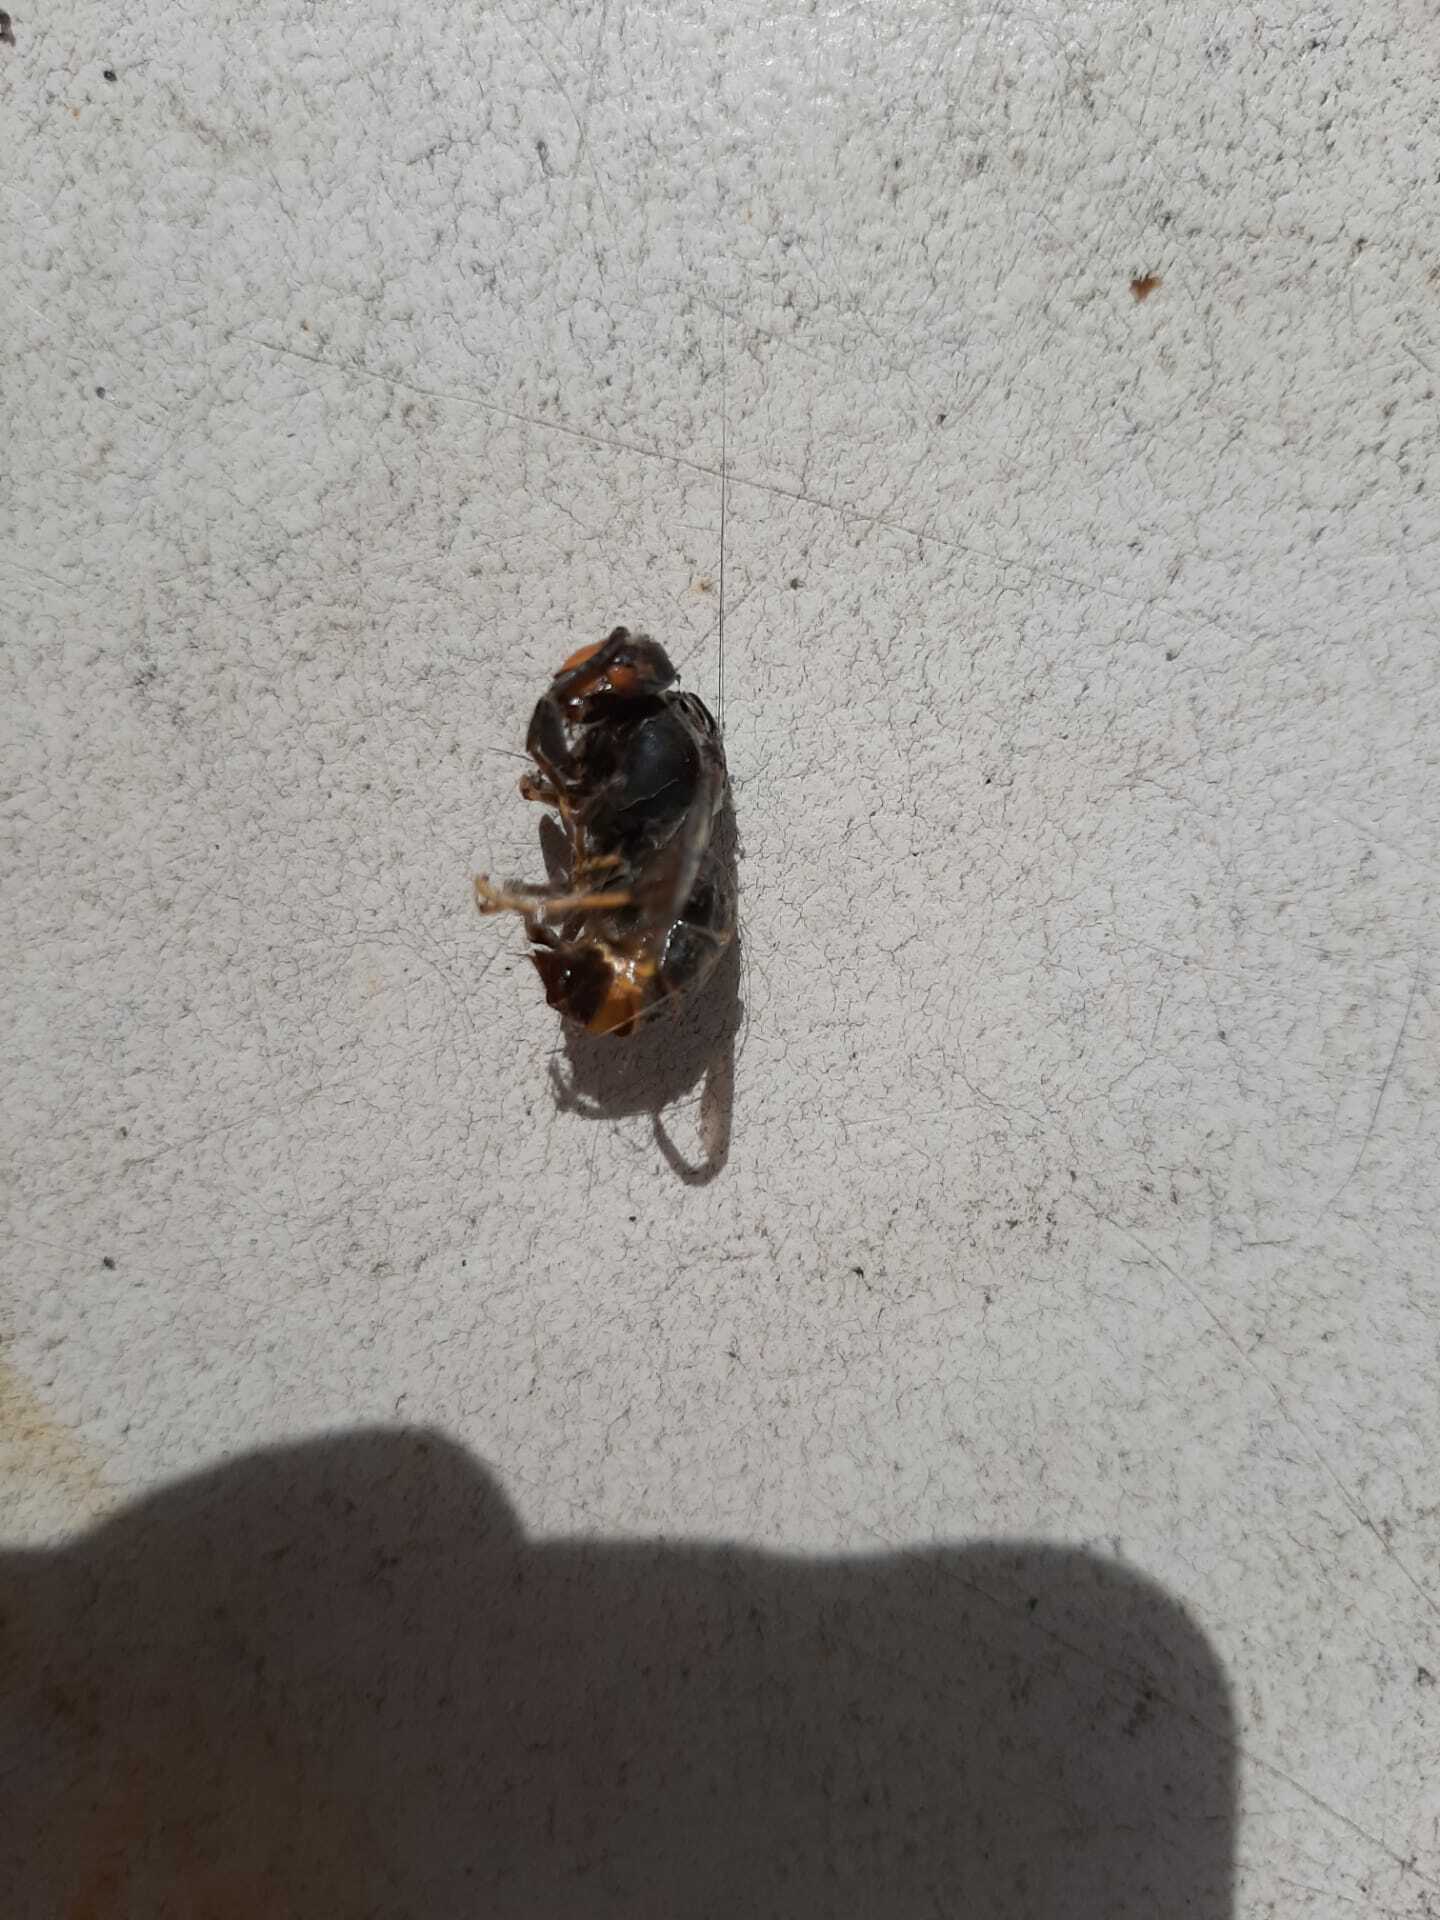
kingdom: Animalia
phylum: Arthropoda
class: Insecta
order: Hymenoptera
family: Vespidae
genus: Vespa
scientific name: Vespa velutina
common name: Asian hornet
